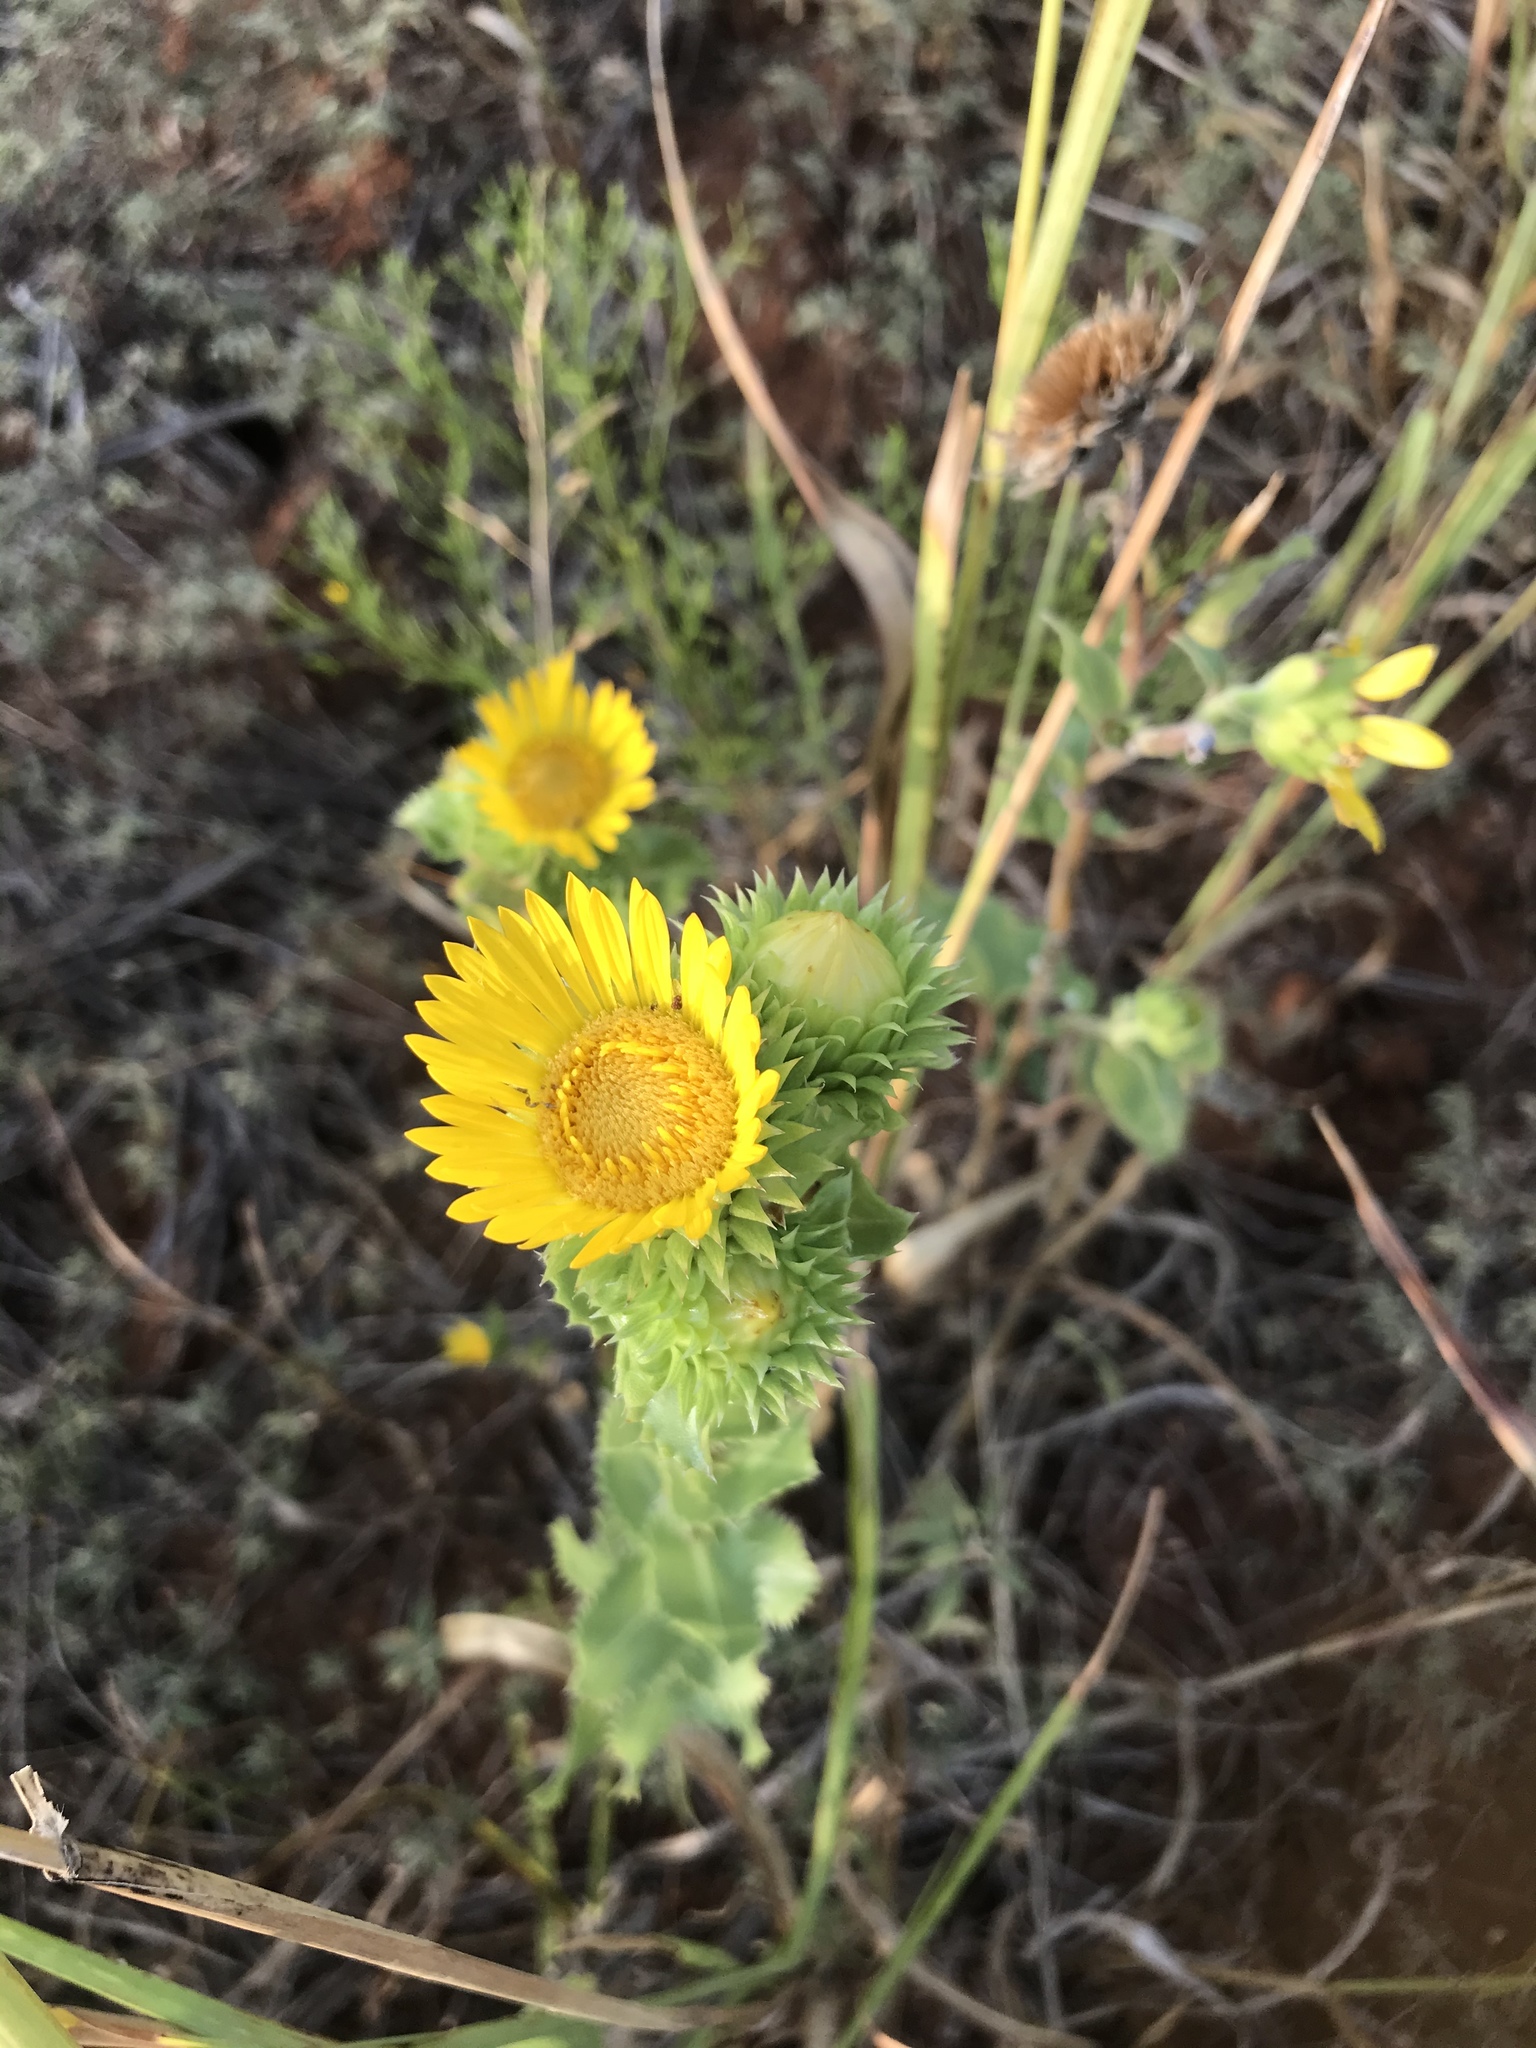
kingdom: Plantae
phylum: Tracheophyta
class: Magnoliopsida
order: Asterales
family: Asteraceae
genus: Grindelia
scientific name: Grindelia ciliata
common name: Goldenweed
